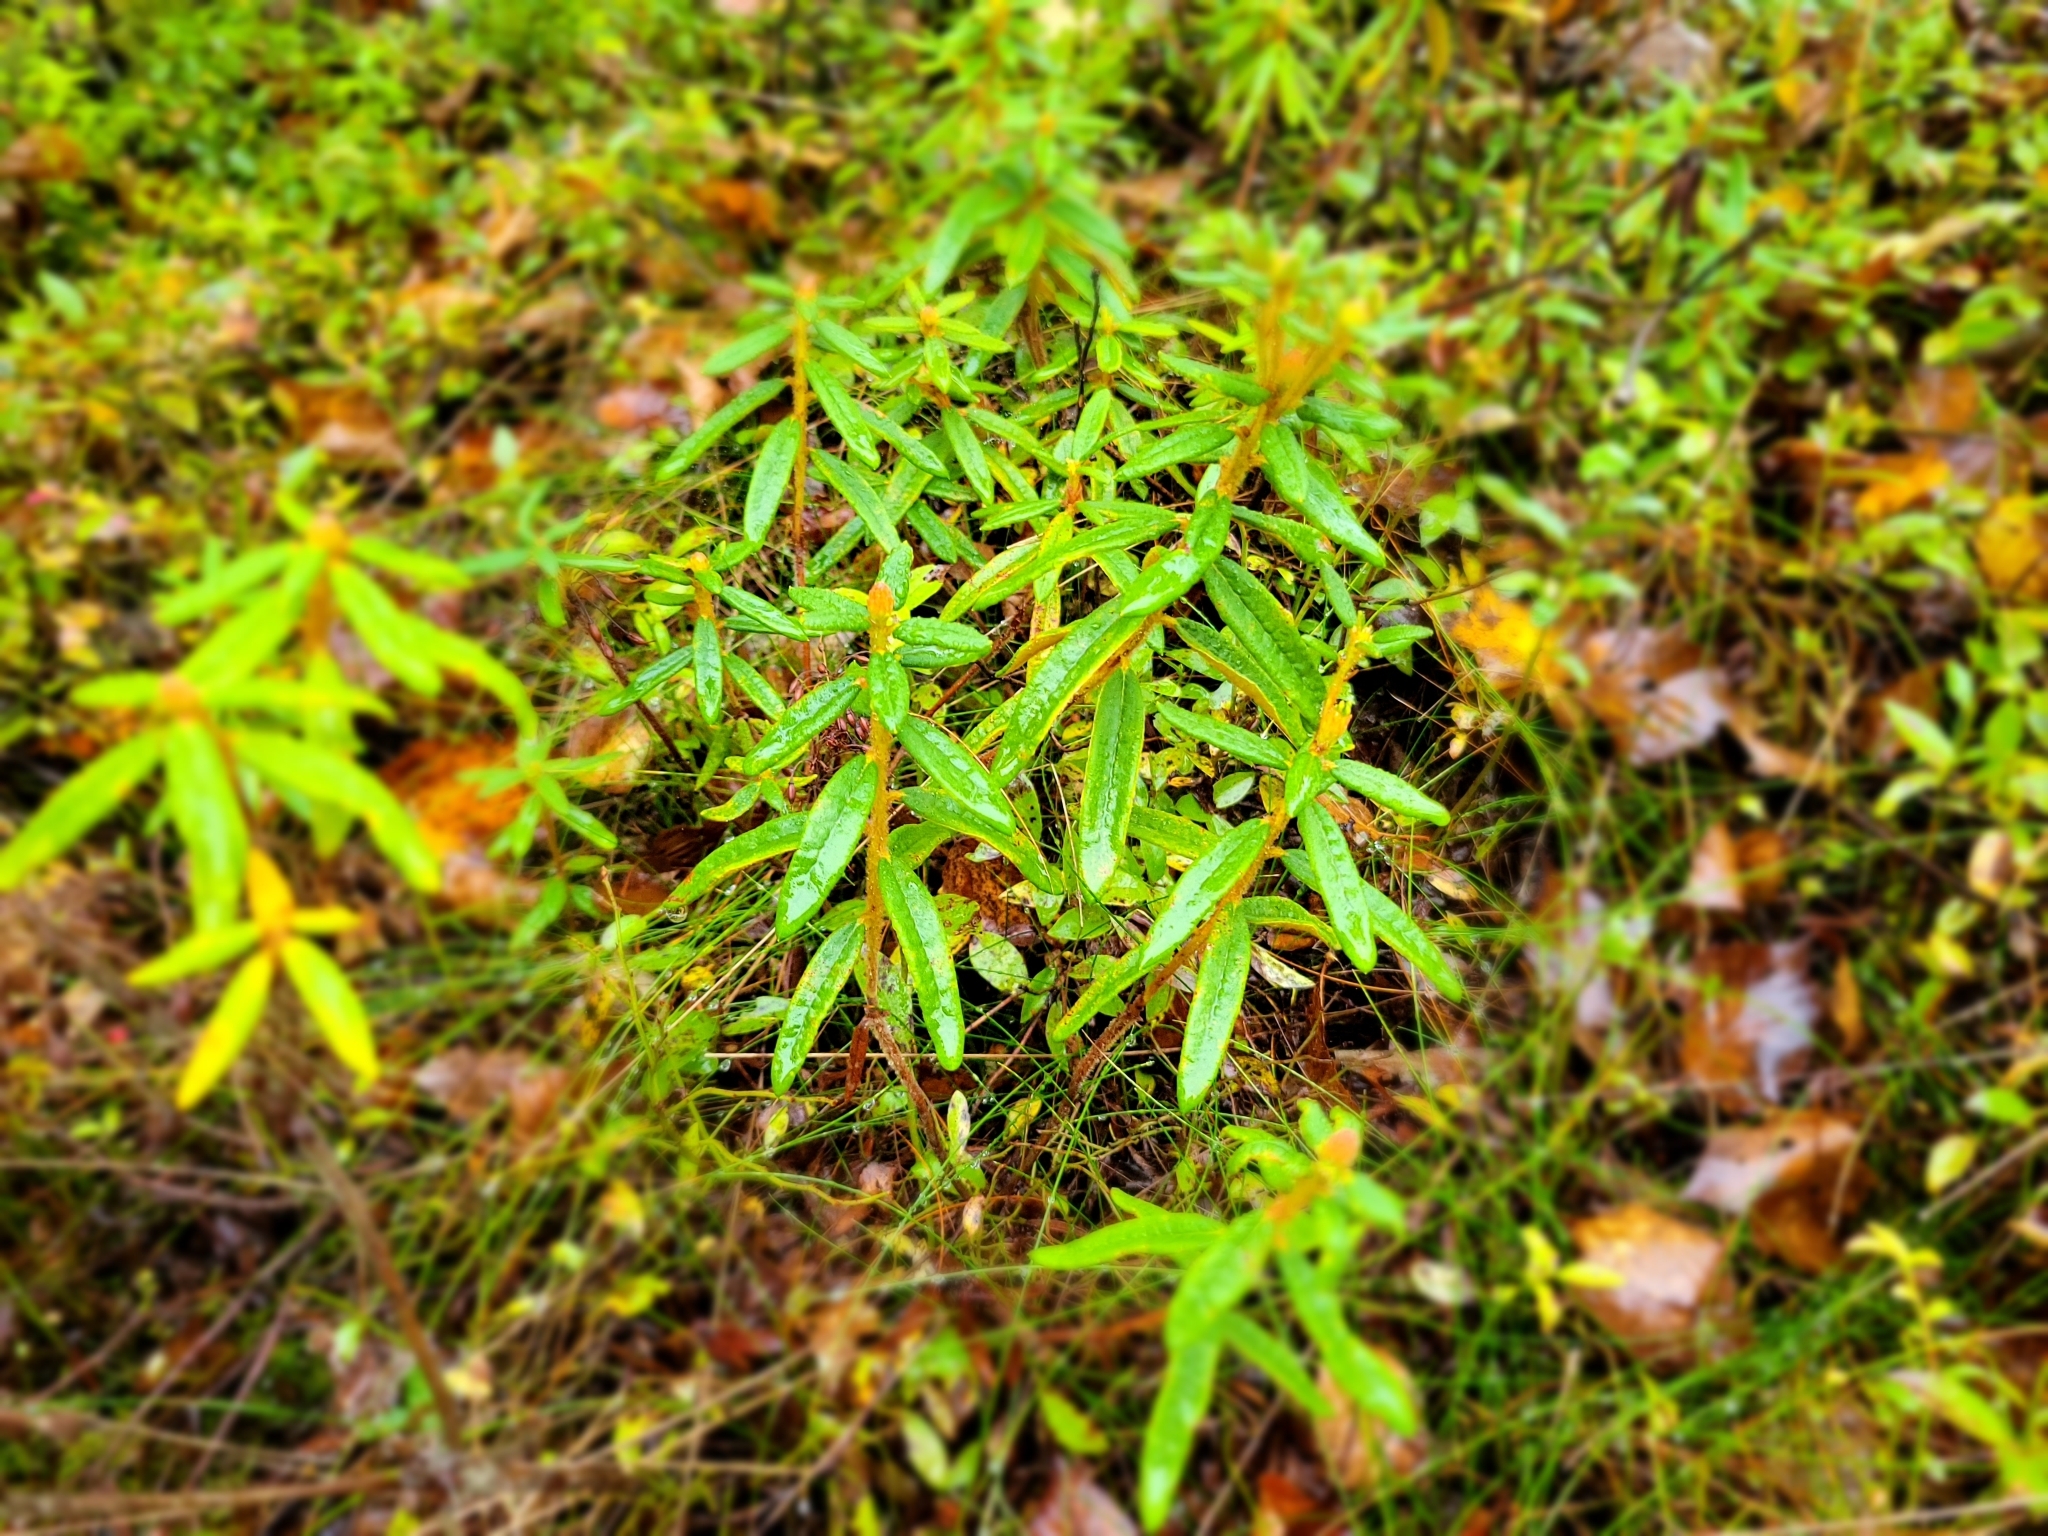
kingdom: Plantae
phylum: Tracheophyta
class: Magnoliopsida
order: Ericales
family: Ericaceae
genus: Rhododendron
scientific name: Rhododendron groenlandicum
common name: Bog labrador tea
